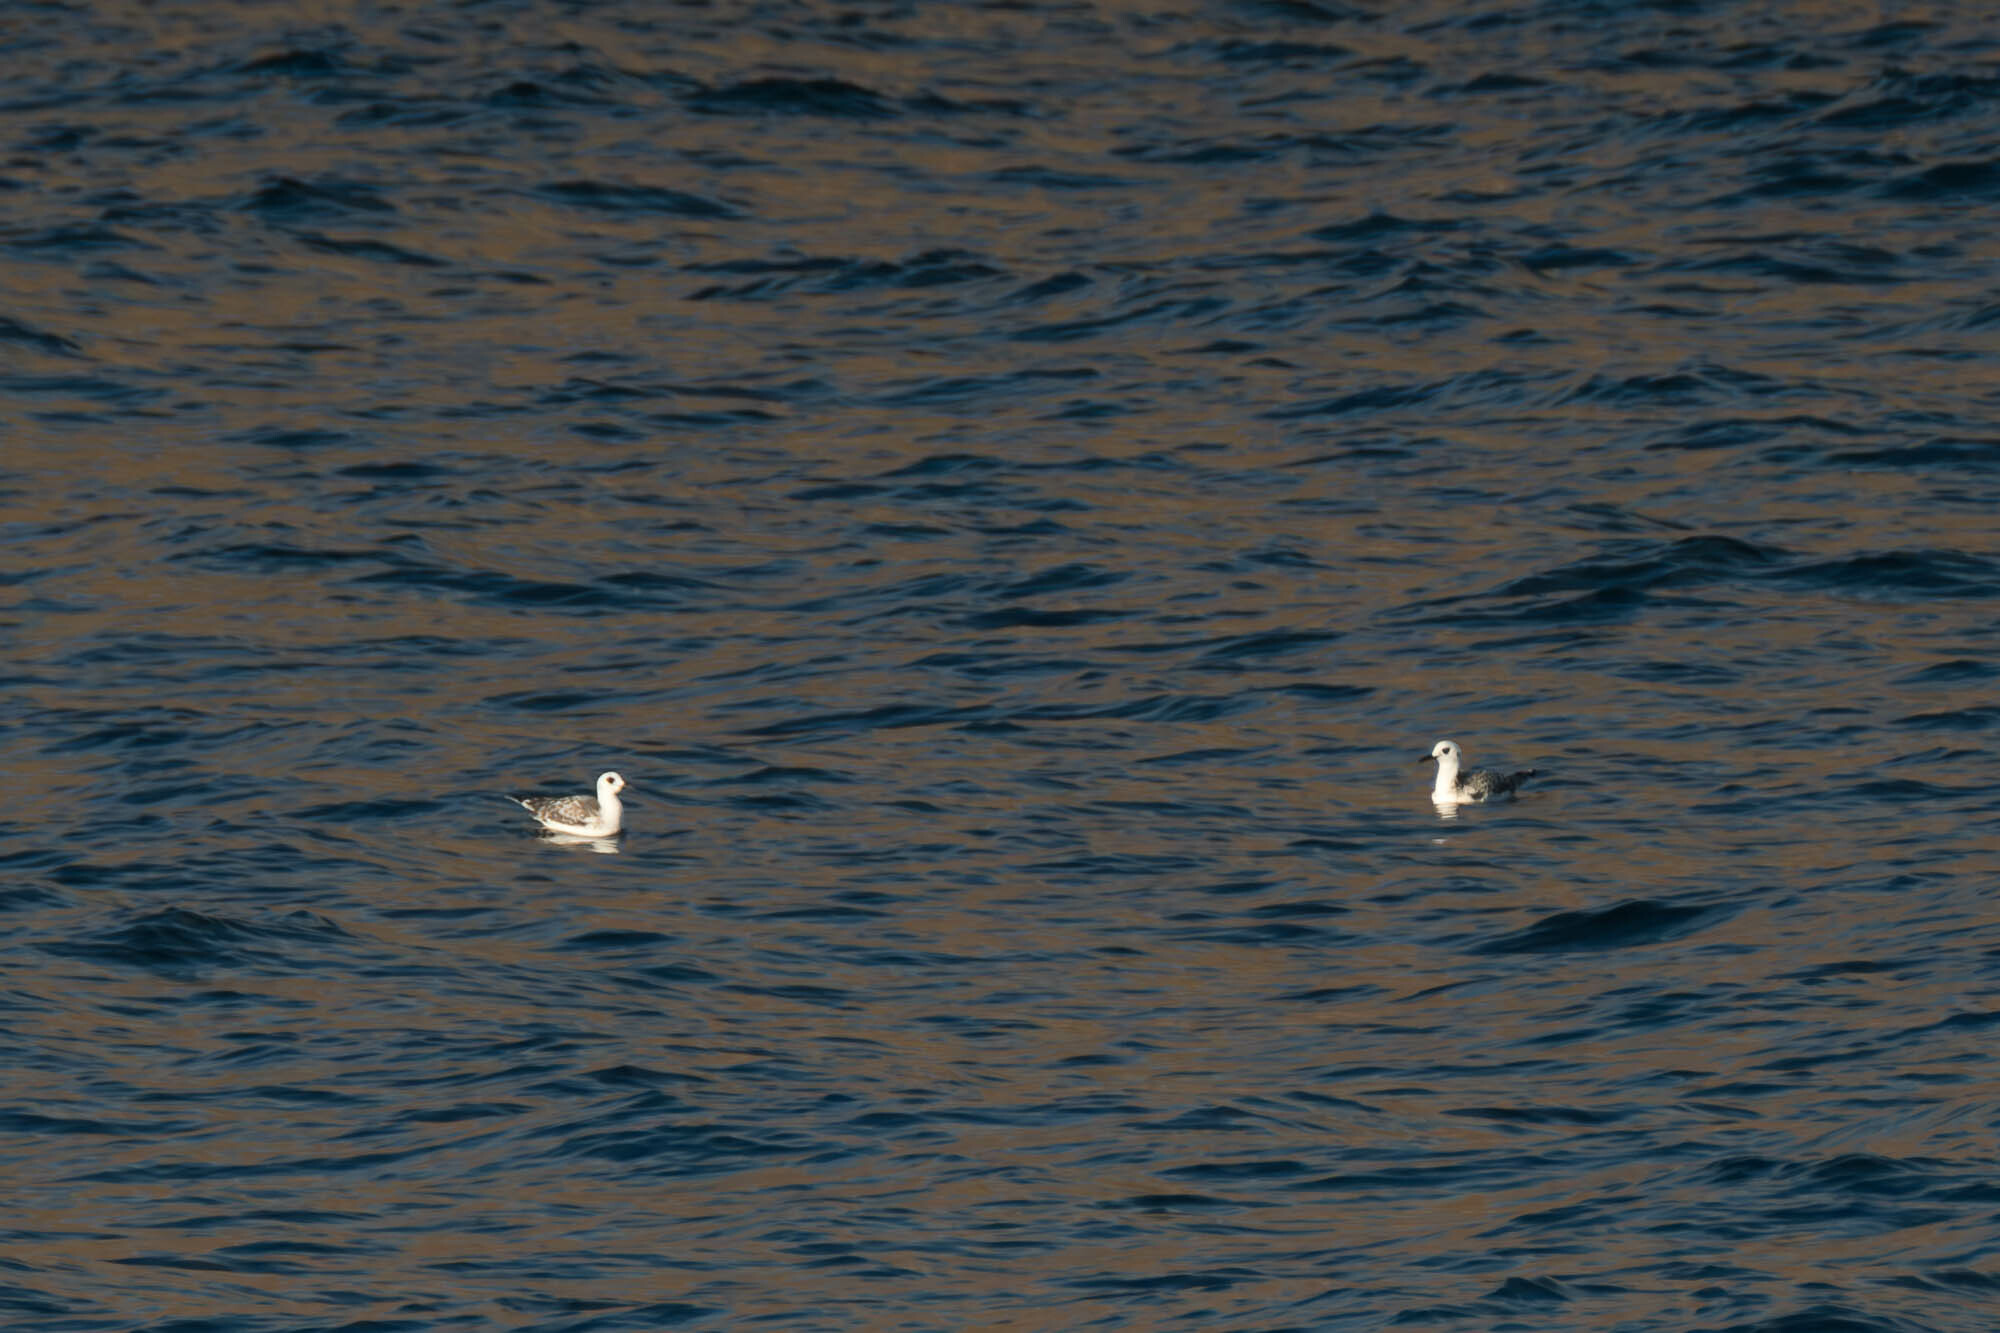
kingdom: Animalia
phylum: Chordata
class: Aves
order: Charadriiformes
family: Laridae
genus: Creagrus
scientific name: Creagrus furcatus
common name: Swallow-tailed gull
